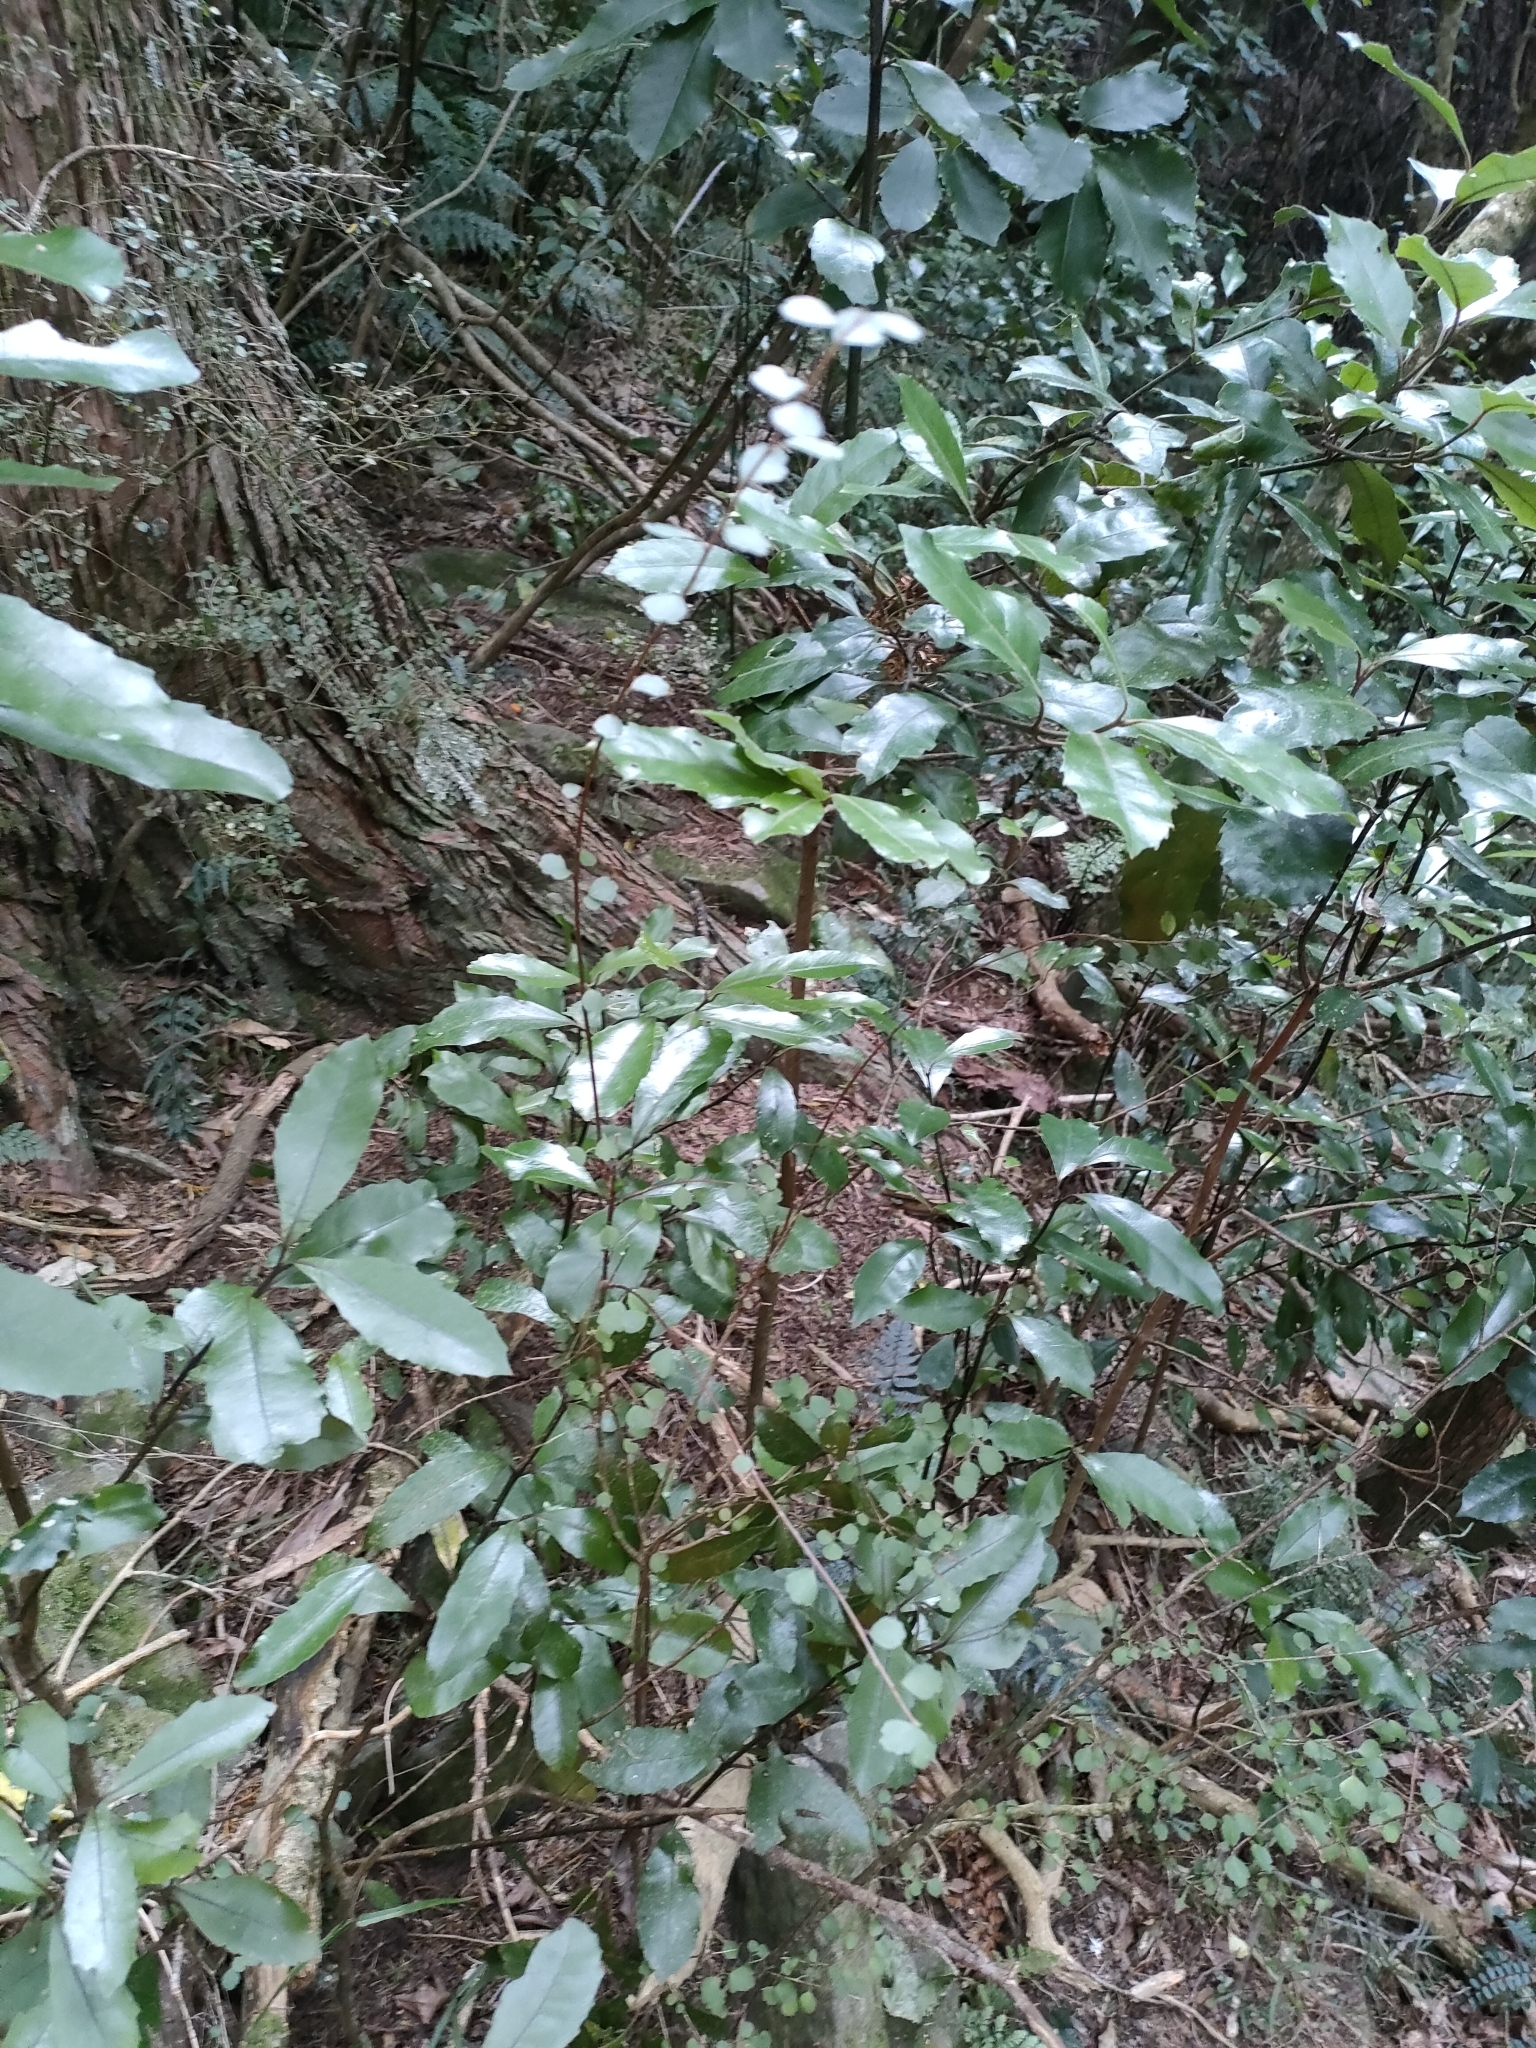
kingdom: Plantae
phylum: Tracheophyta
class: Magnoliopsida
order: Laurales
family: Monimiaceae
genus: Hedycarya
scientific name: Hedycarya arborea
